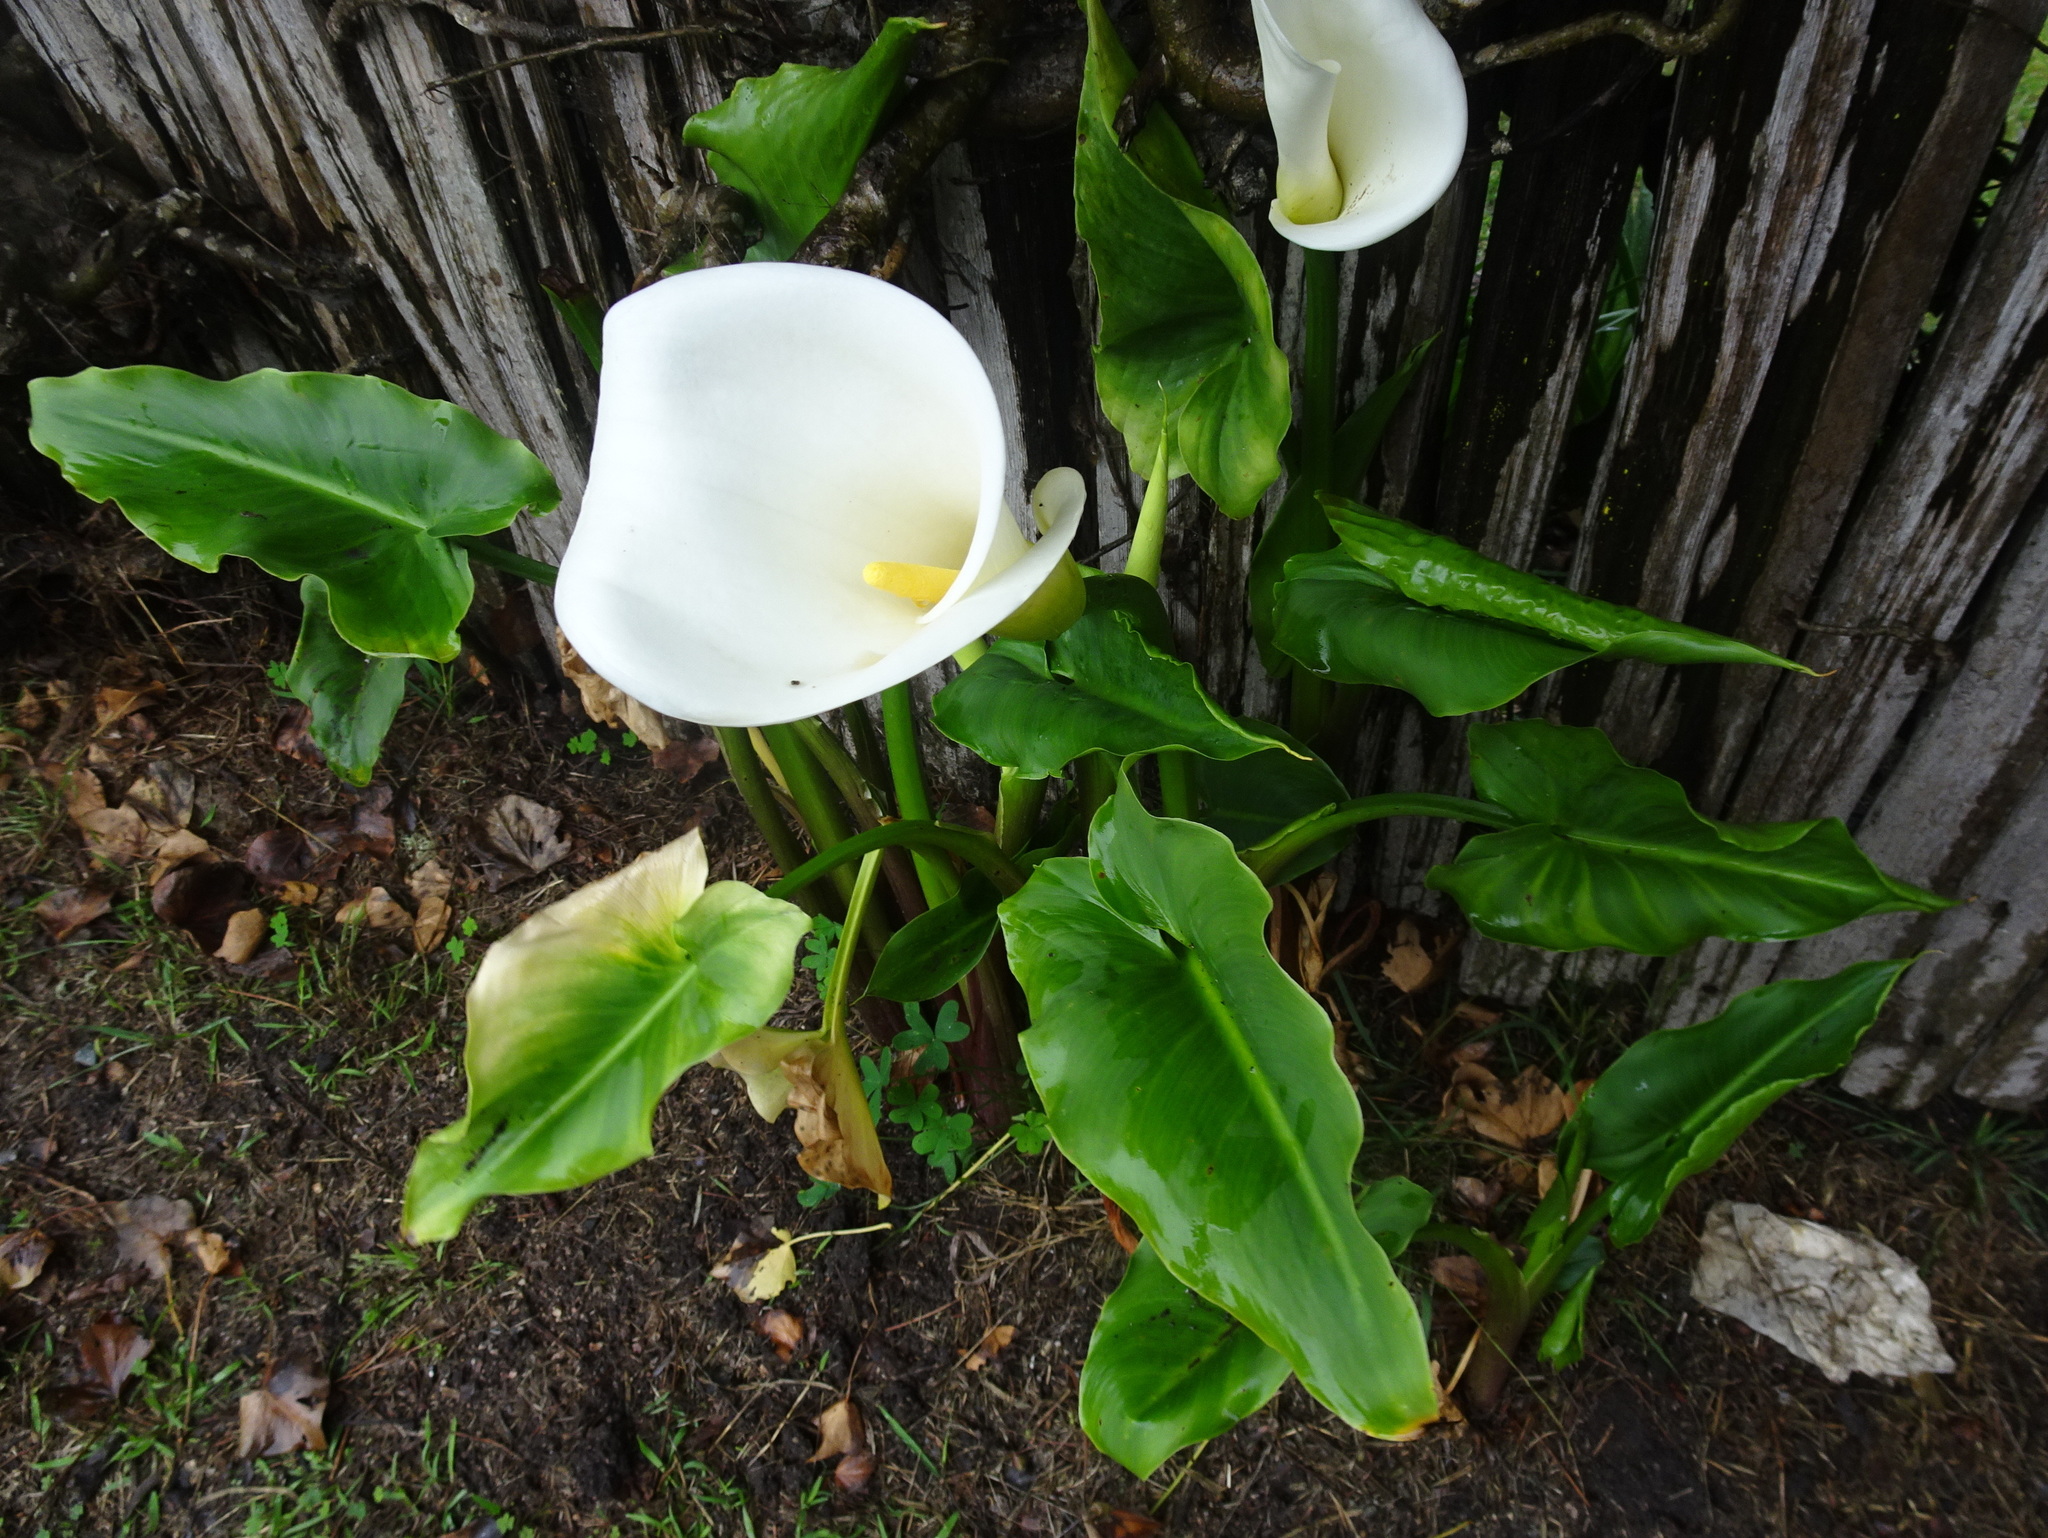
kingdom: Plantae
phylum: Tracheophyta
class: Liliopsida
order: Alismatales
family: Araceae
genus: Zantedeschia
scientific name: Zantedeschia aethiopica
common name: Altar-lily
